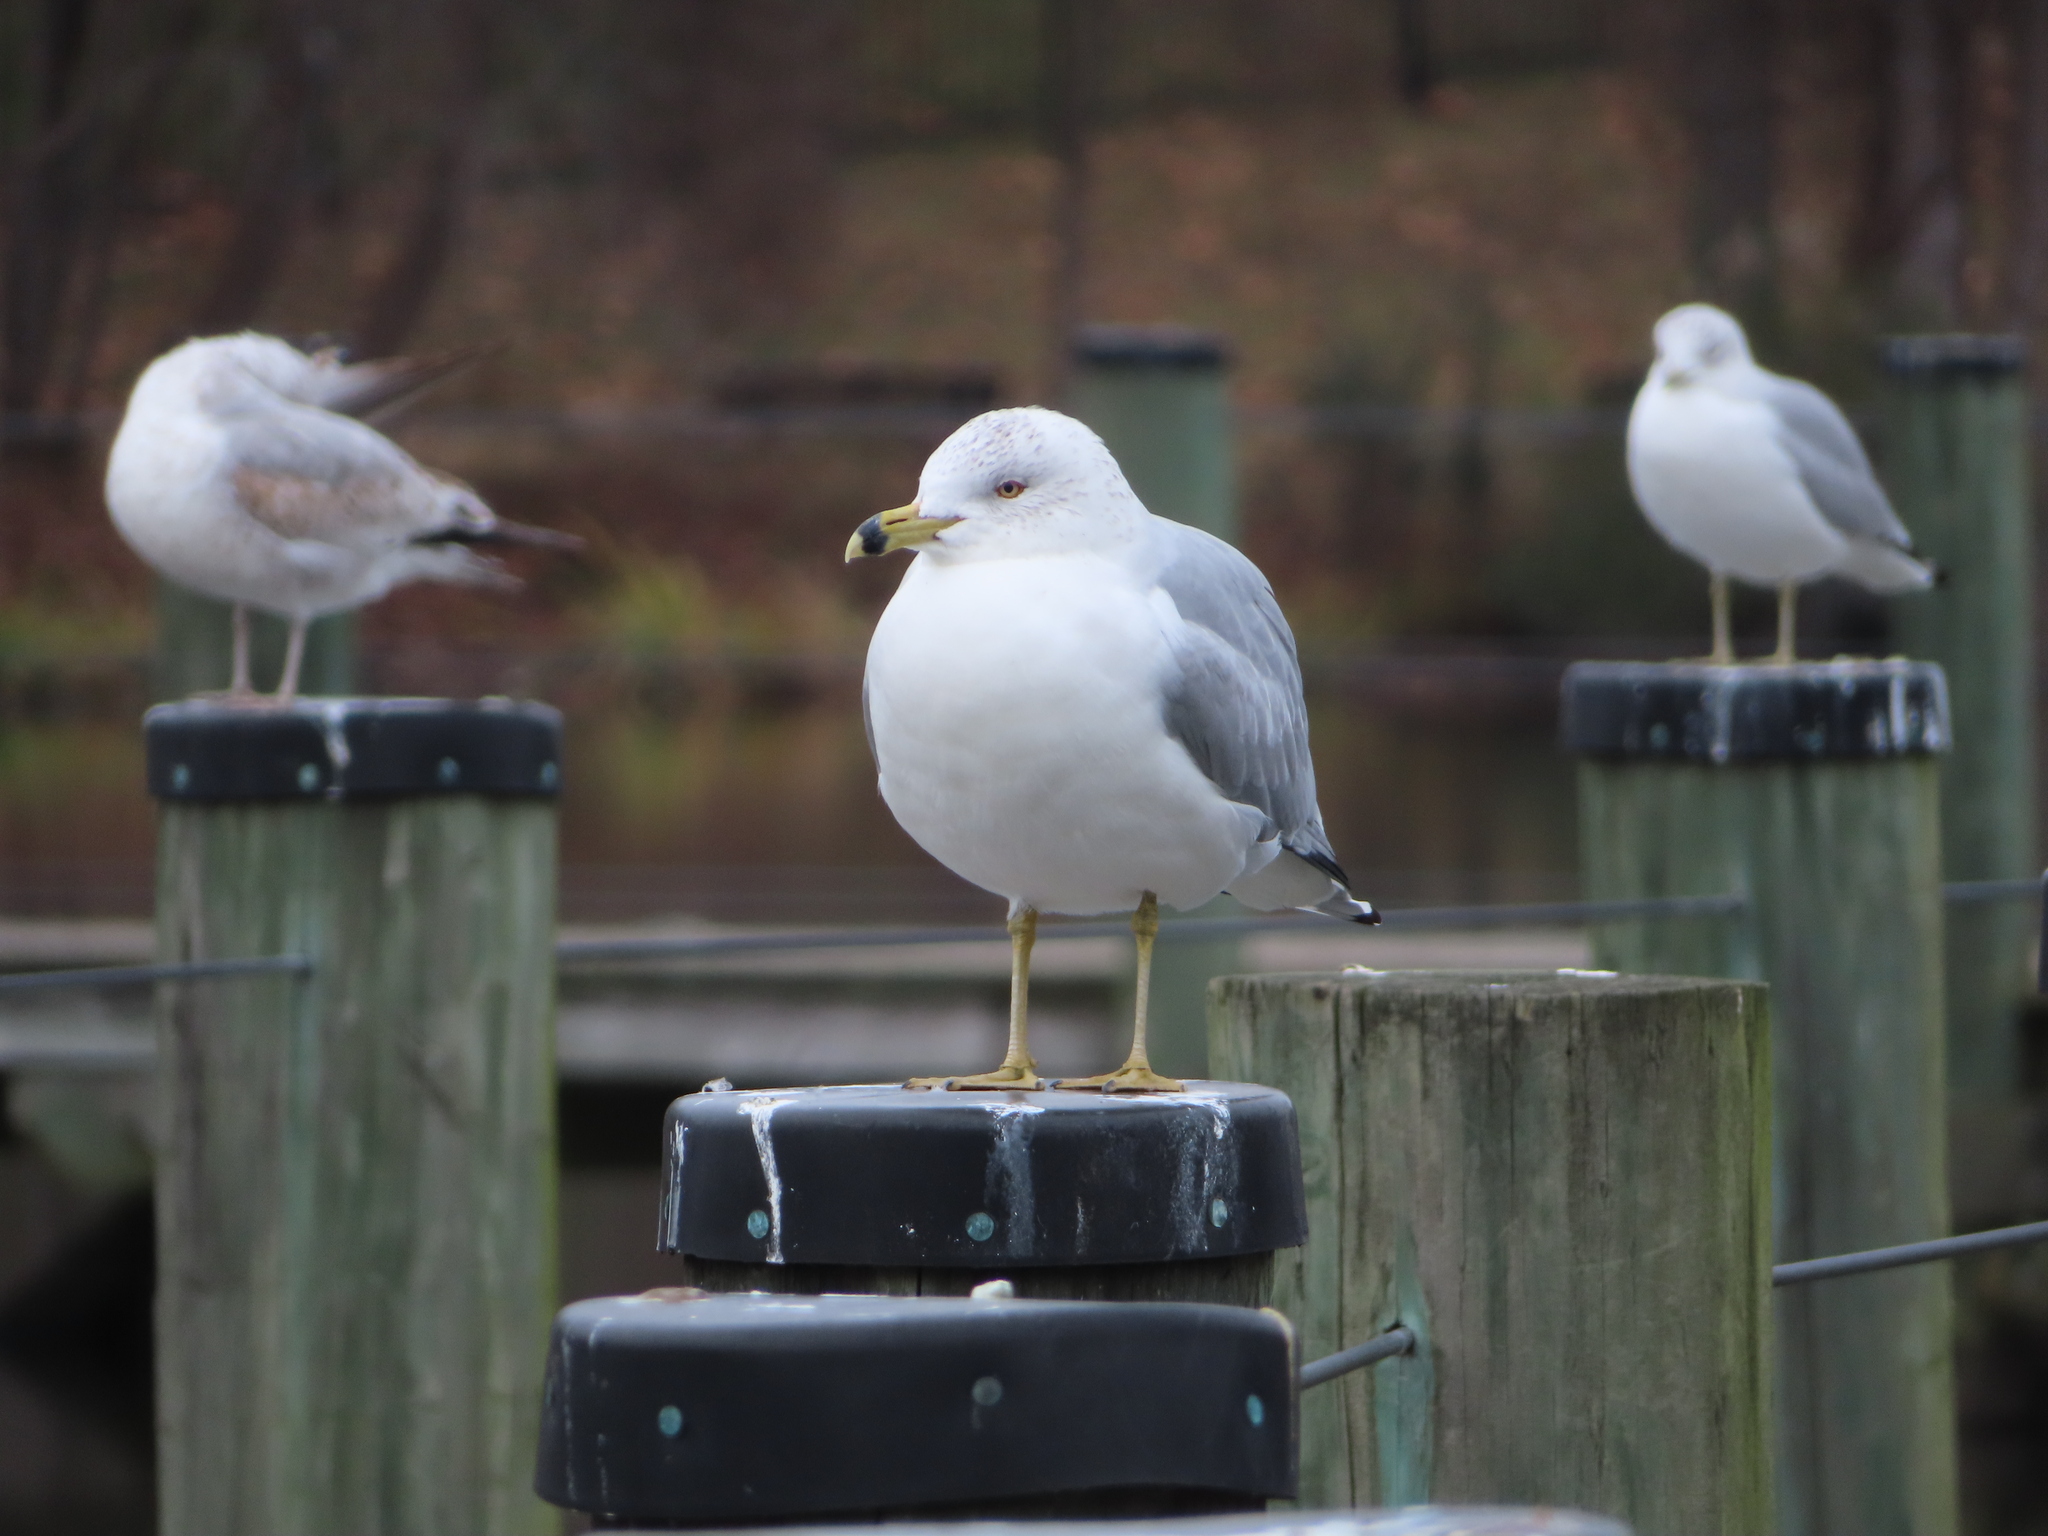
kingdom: Animalia
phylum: Chordata
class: Aves
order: Charadriiformes
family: Laridae
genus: Larus
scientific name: Larus delawarensis
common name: Ring-billed gull
